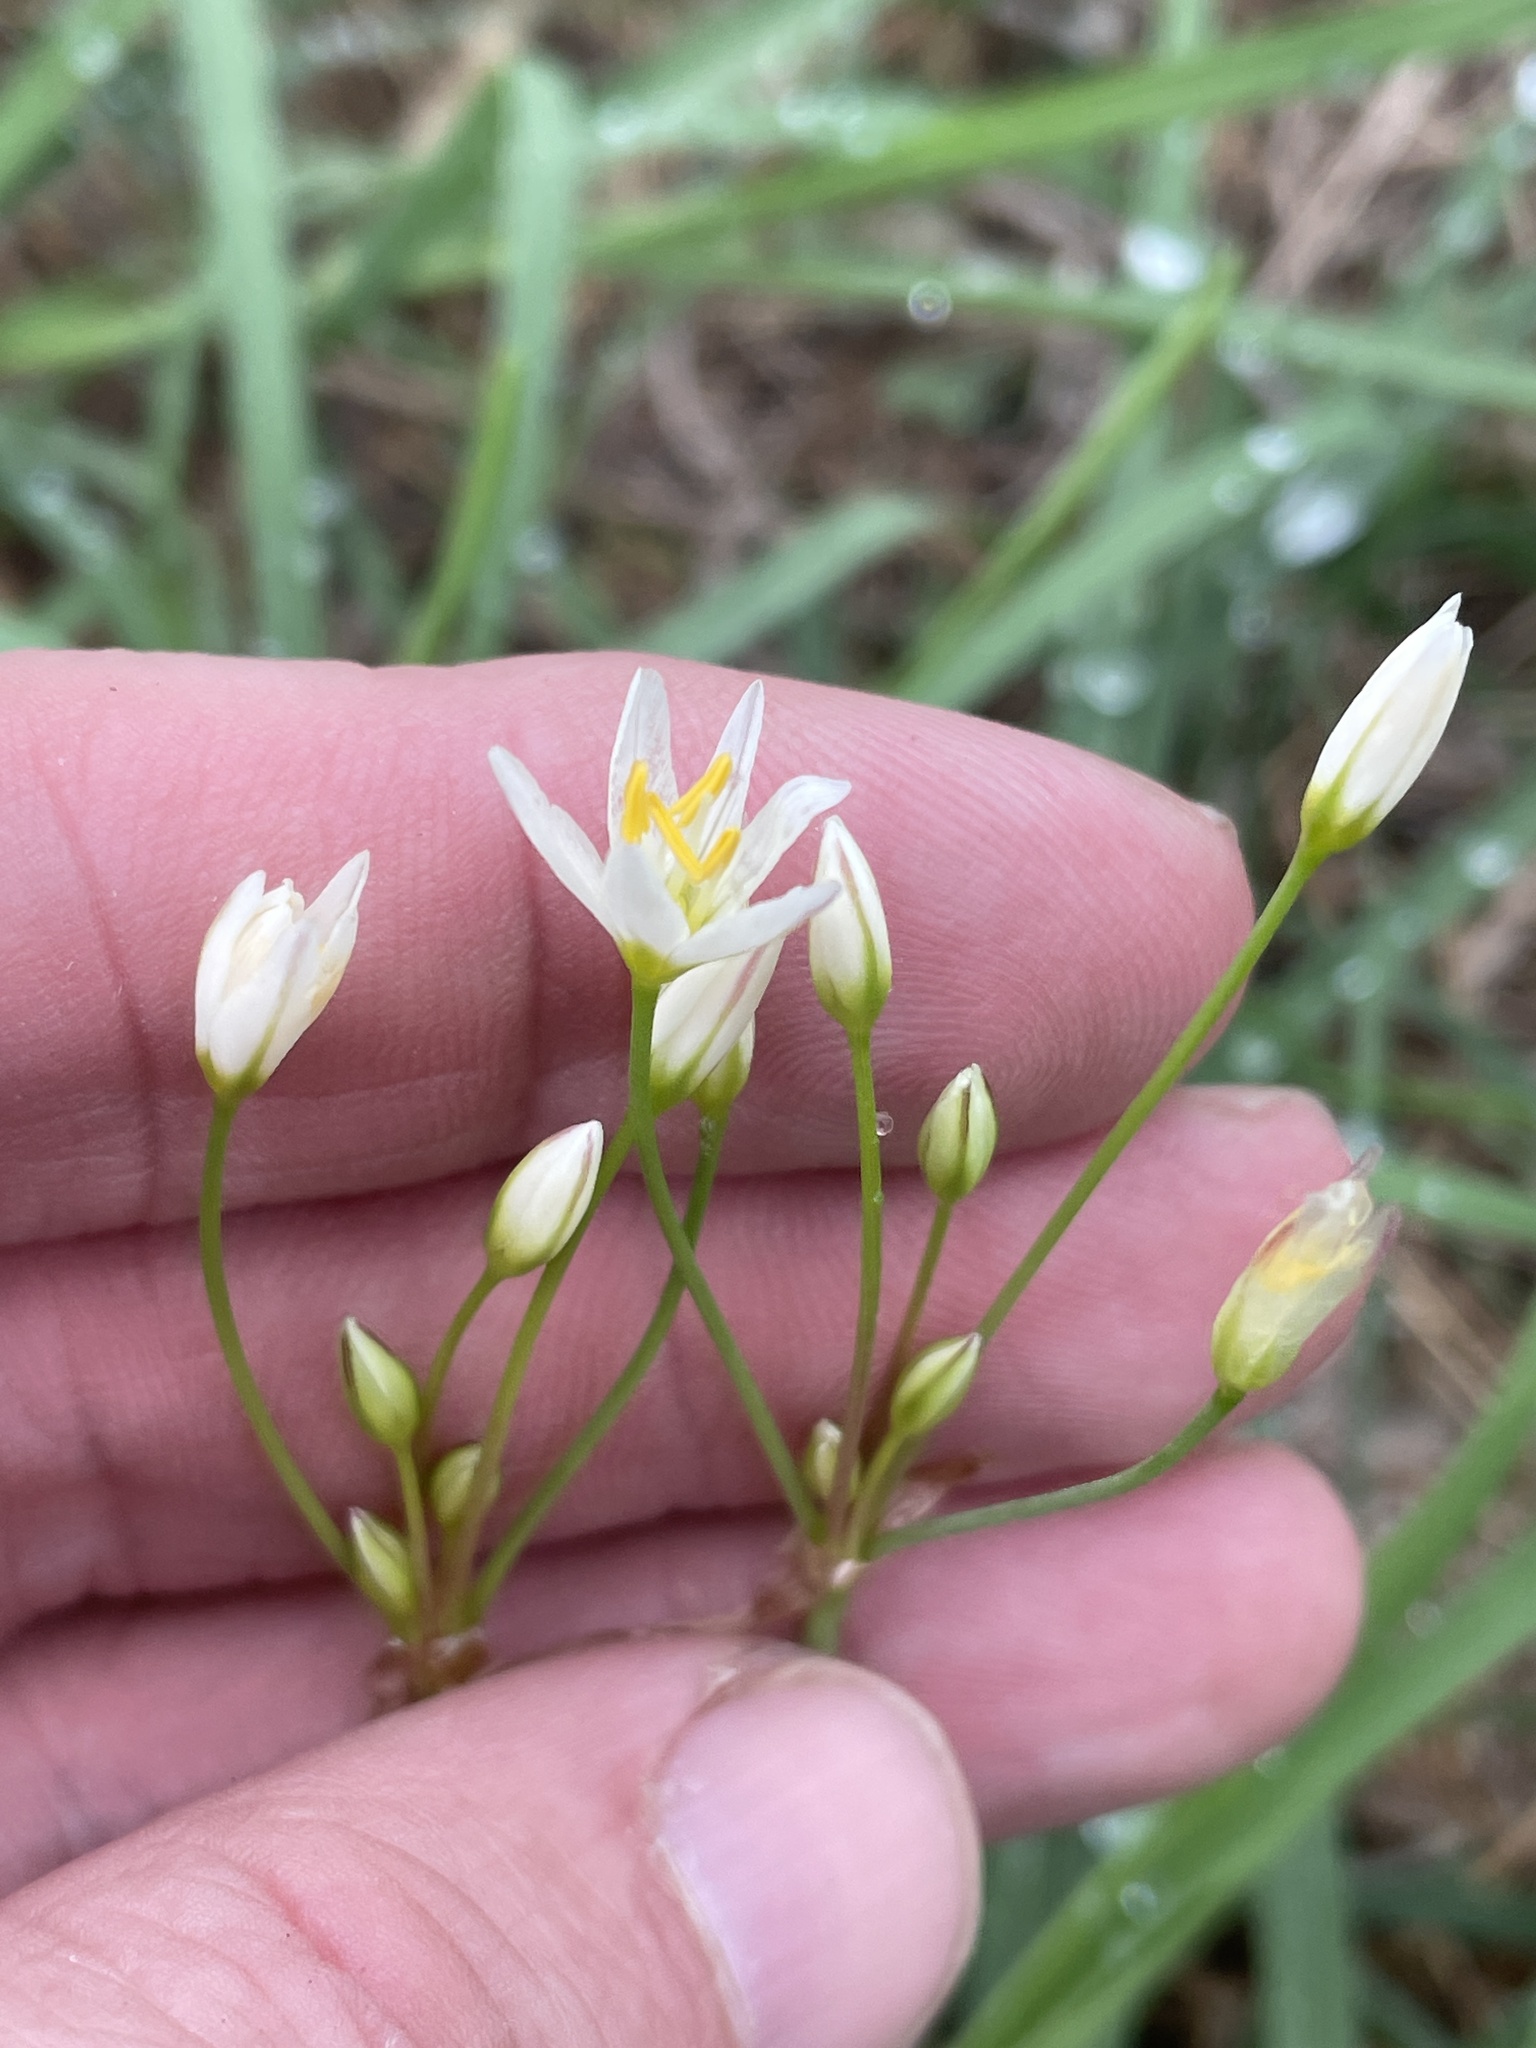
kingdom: Plantae
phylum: Tracheophyta
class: Liliopsida
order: Asparagales
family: Amaryllidaceae
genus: Nothoscordum
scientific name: Nothoscordum bivalve
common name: Crow-poison
